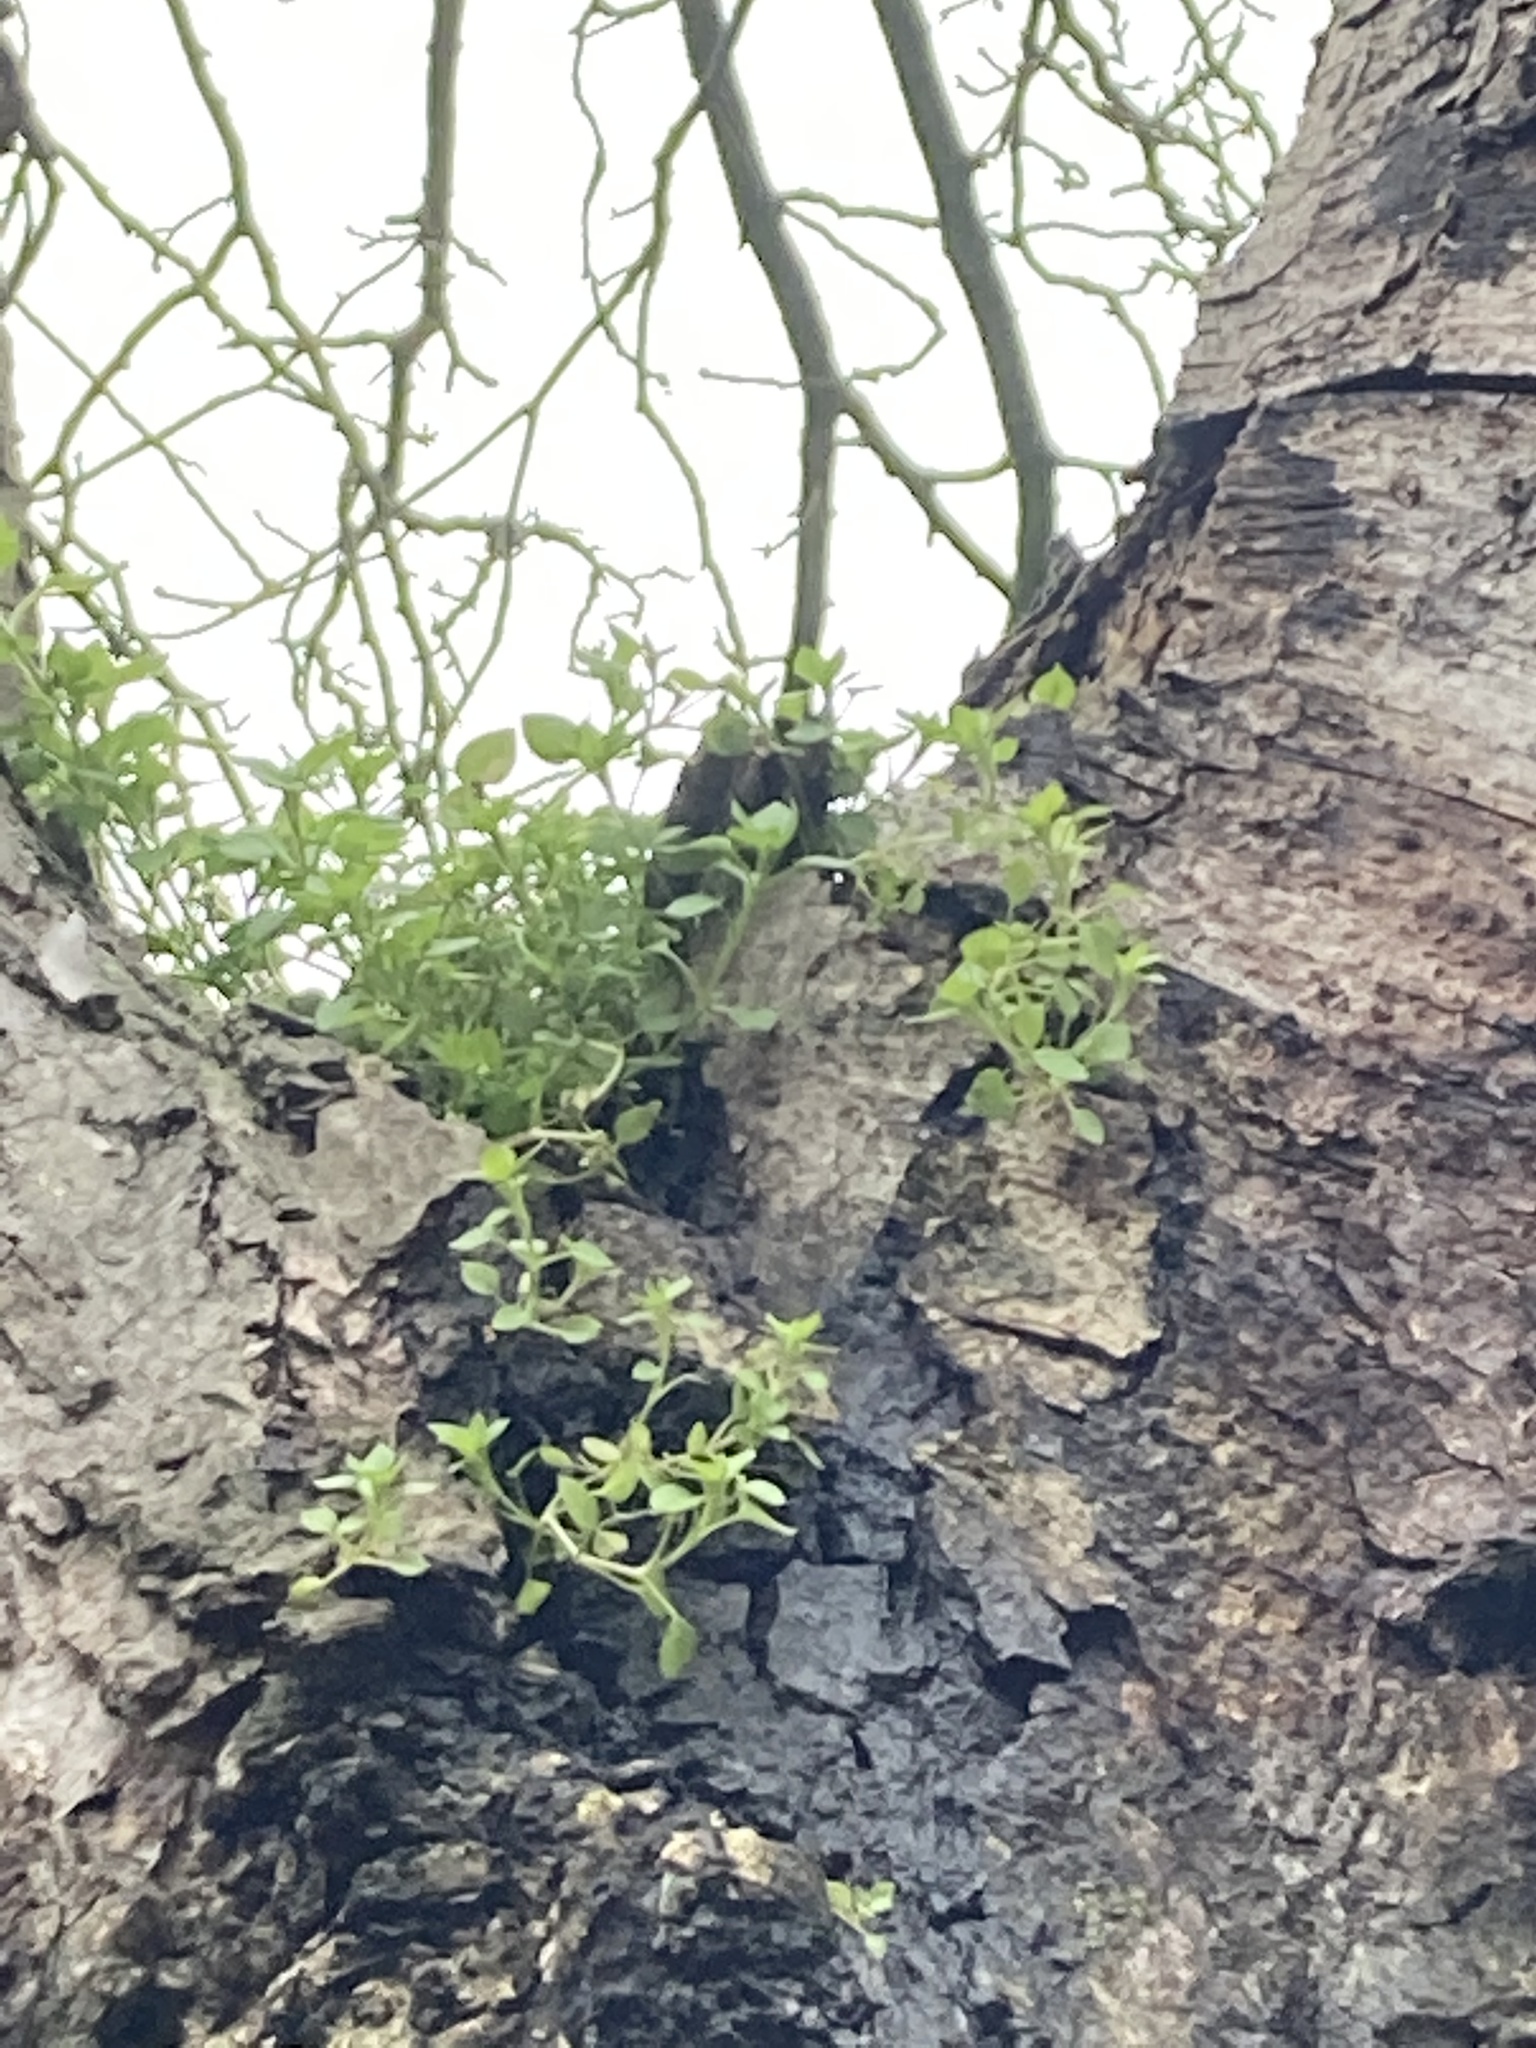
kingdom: Plantae
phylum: Tracheophyta
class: Magnoliopsida
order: Caryophyllales
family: Caryophyllaceae
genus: Stellaria
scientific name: Stellaria media
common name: Common chickweed
